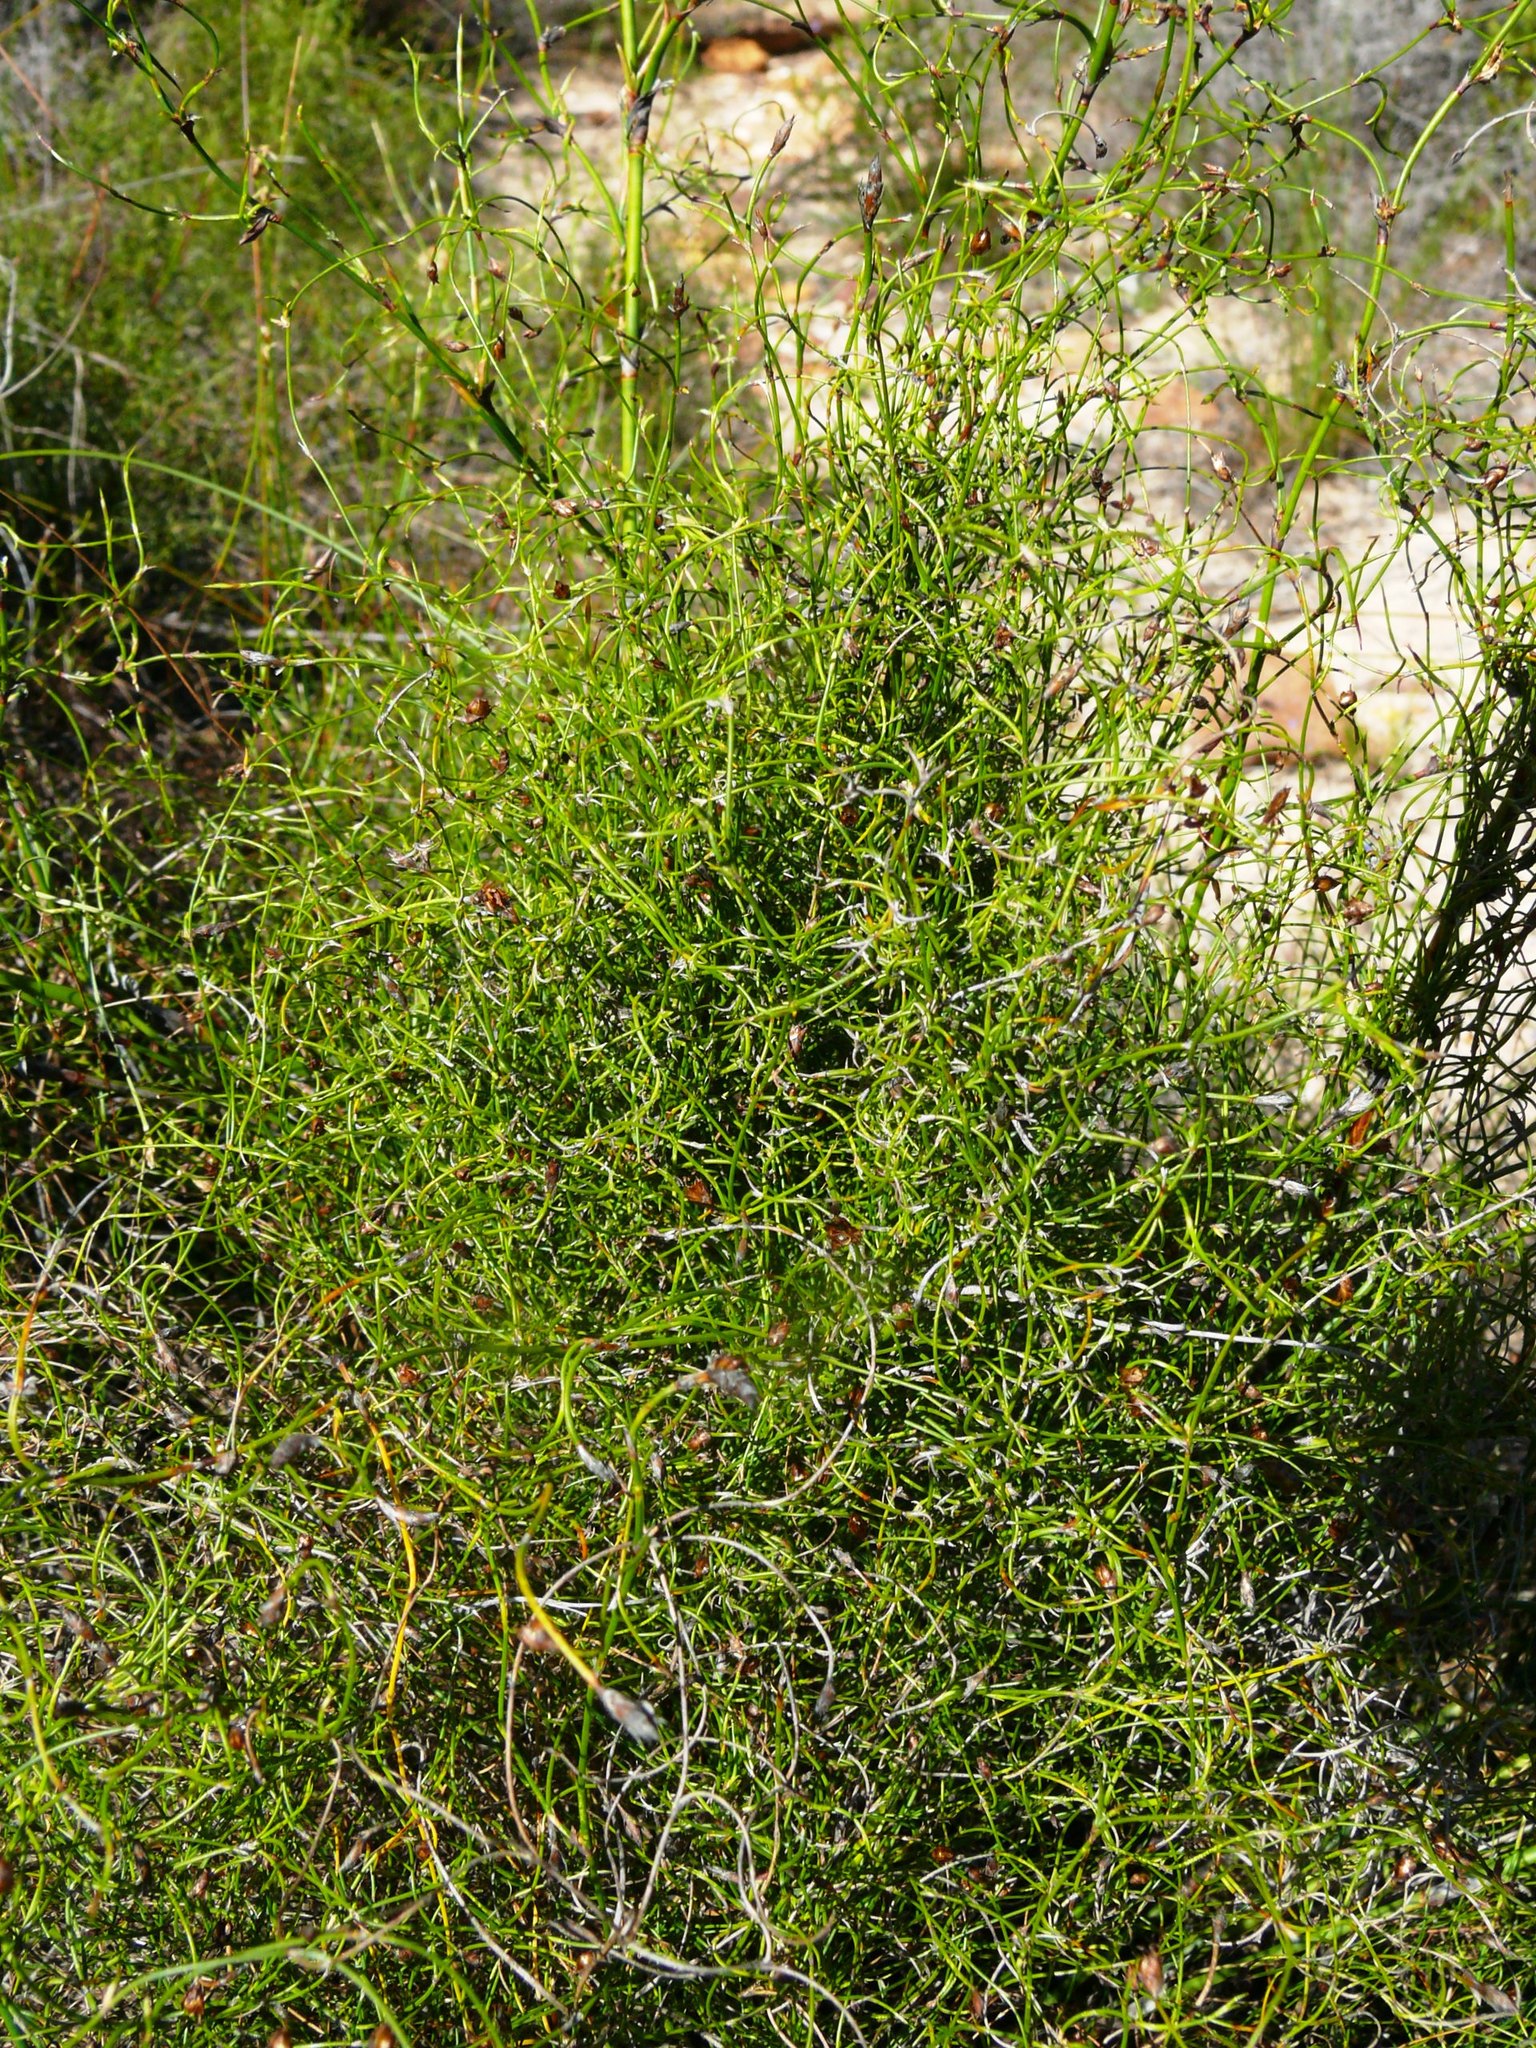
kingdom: Plantae
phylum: Tracheophyta
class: Liliopsida
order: Poales
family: Restionaceae
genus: Restio
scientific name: Restio gaudichaudianus
